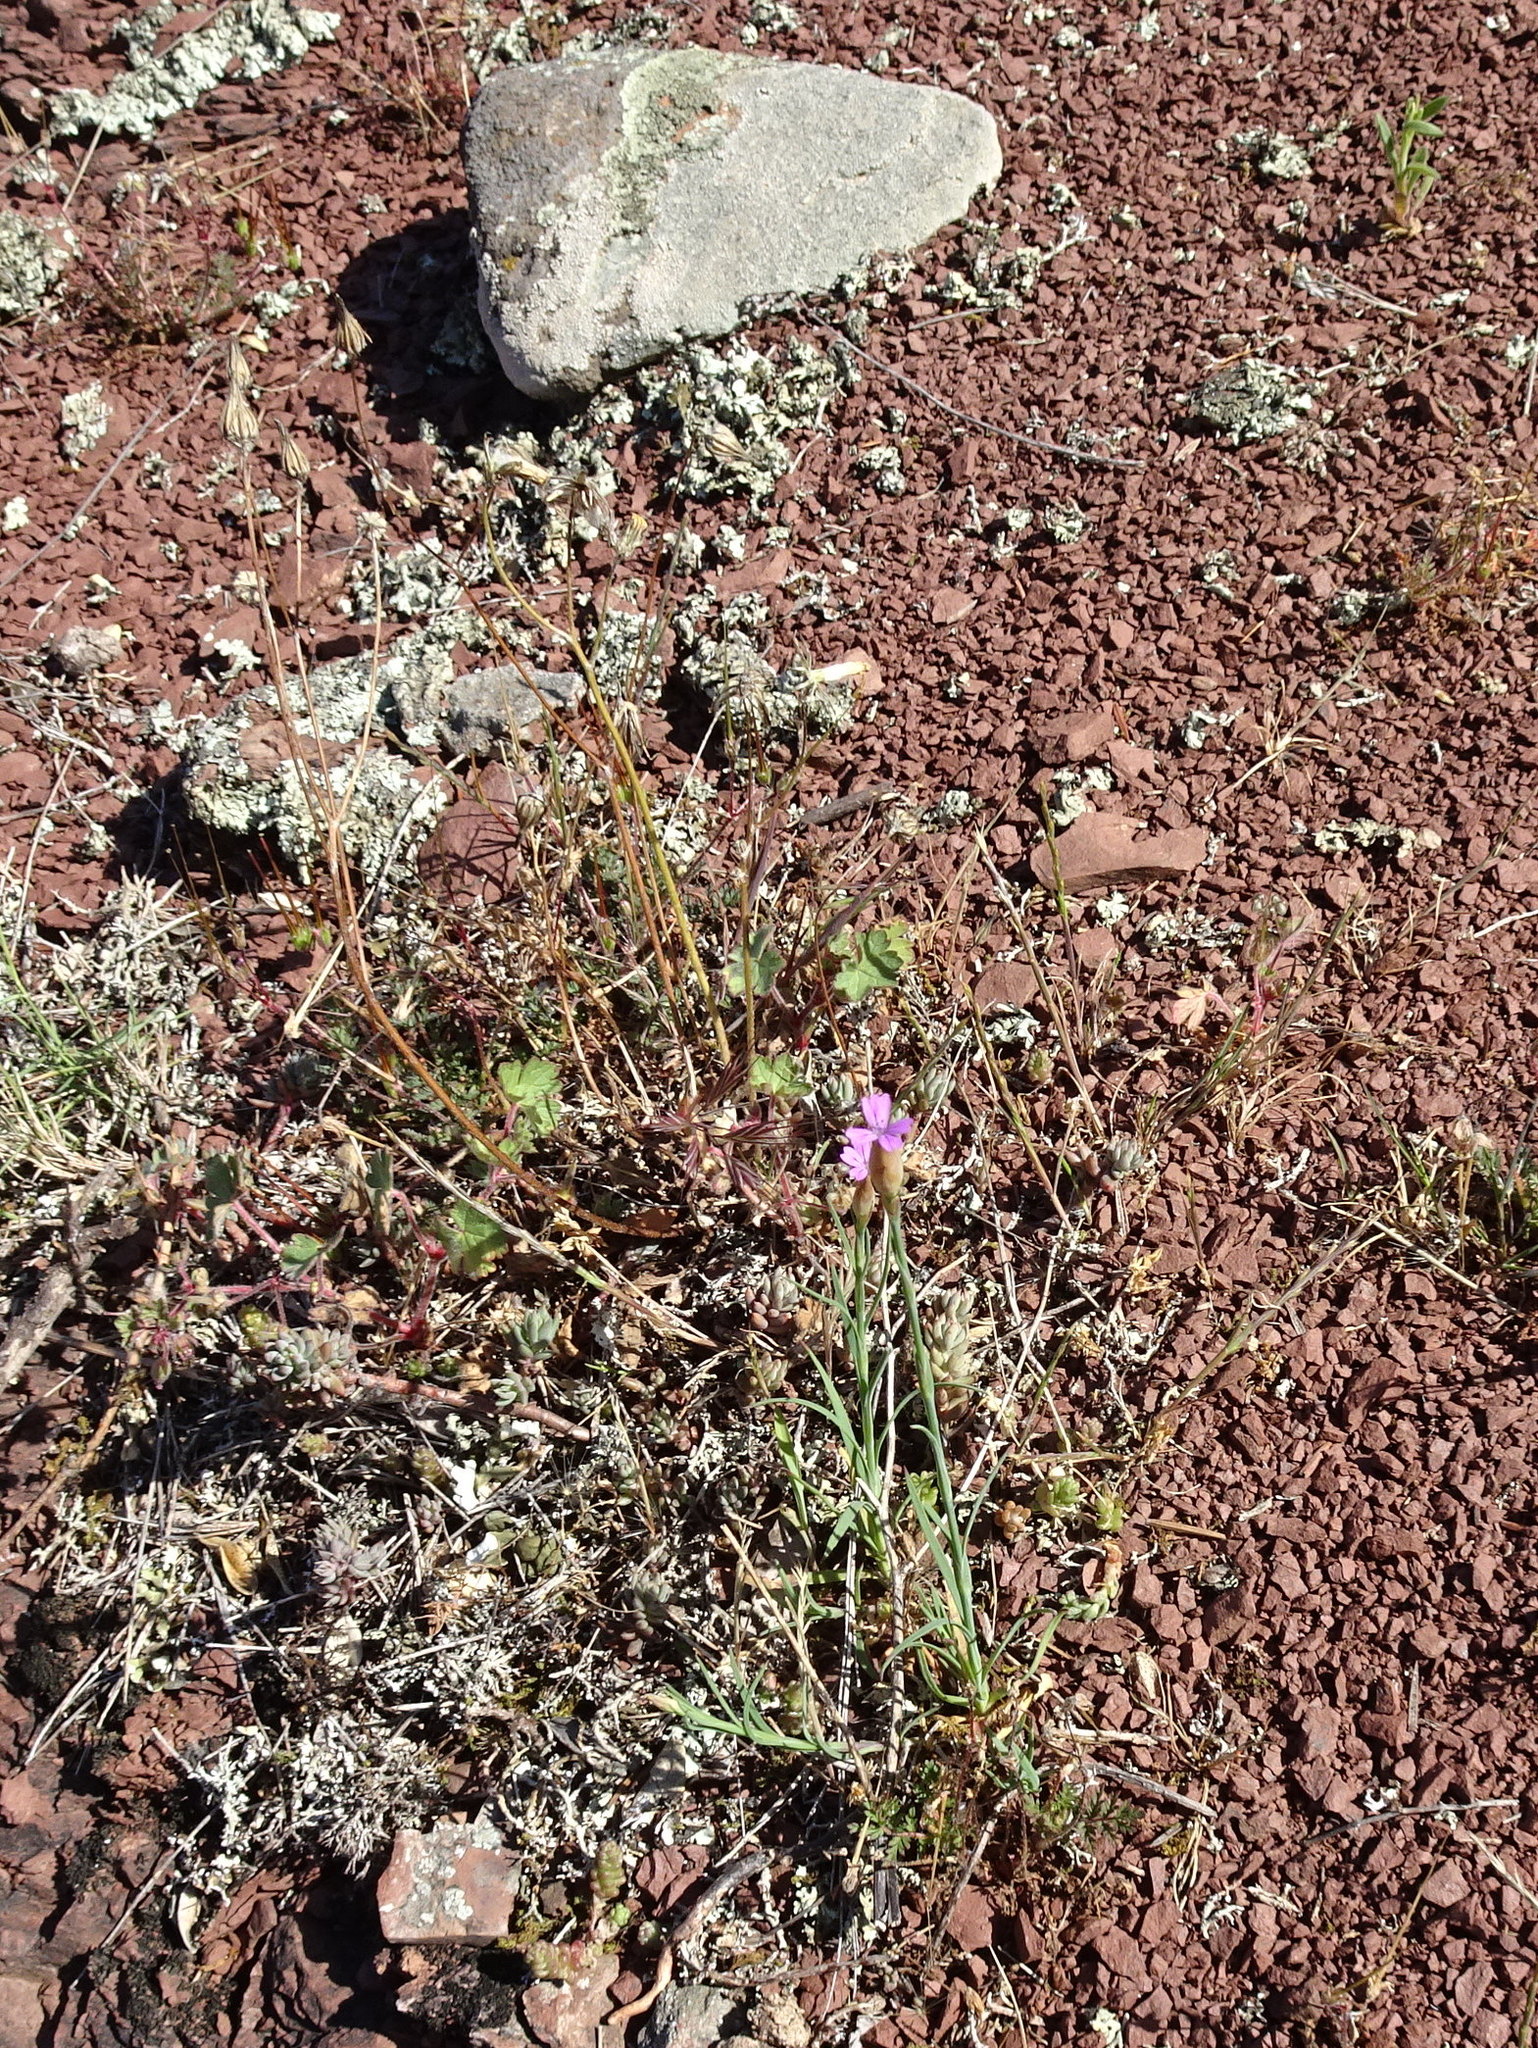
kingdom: Plantae
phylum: Tracheophyta
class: Magnoliopsida
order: Caryophyllales
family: Caryophyllaceae
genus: Petrorhagia
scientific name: Petrorhagia prolifera
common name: Proliferous pink
